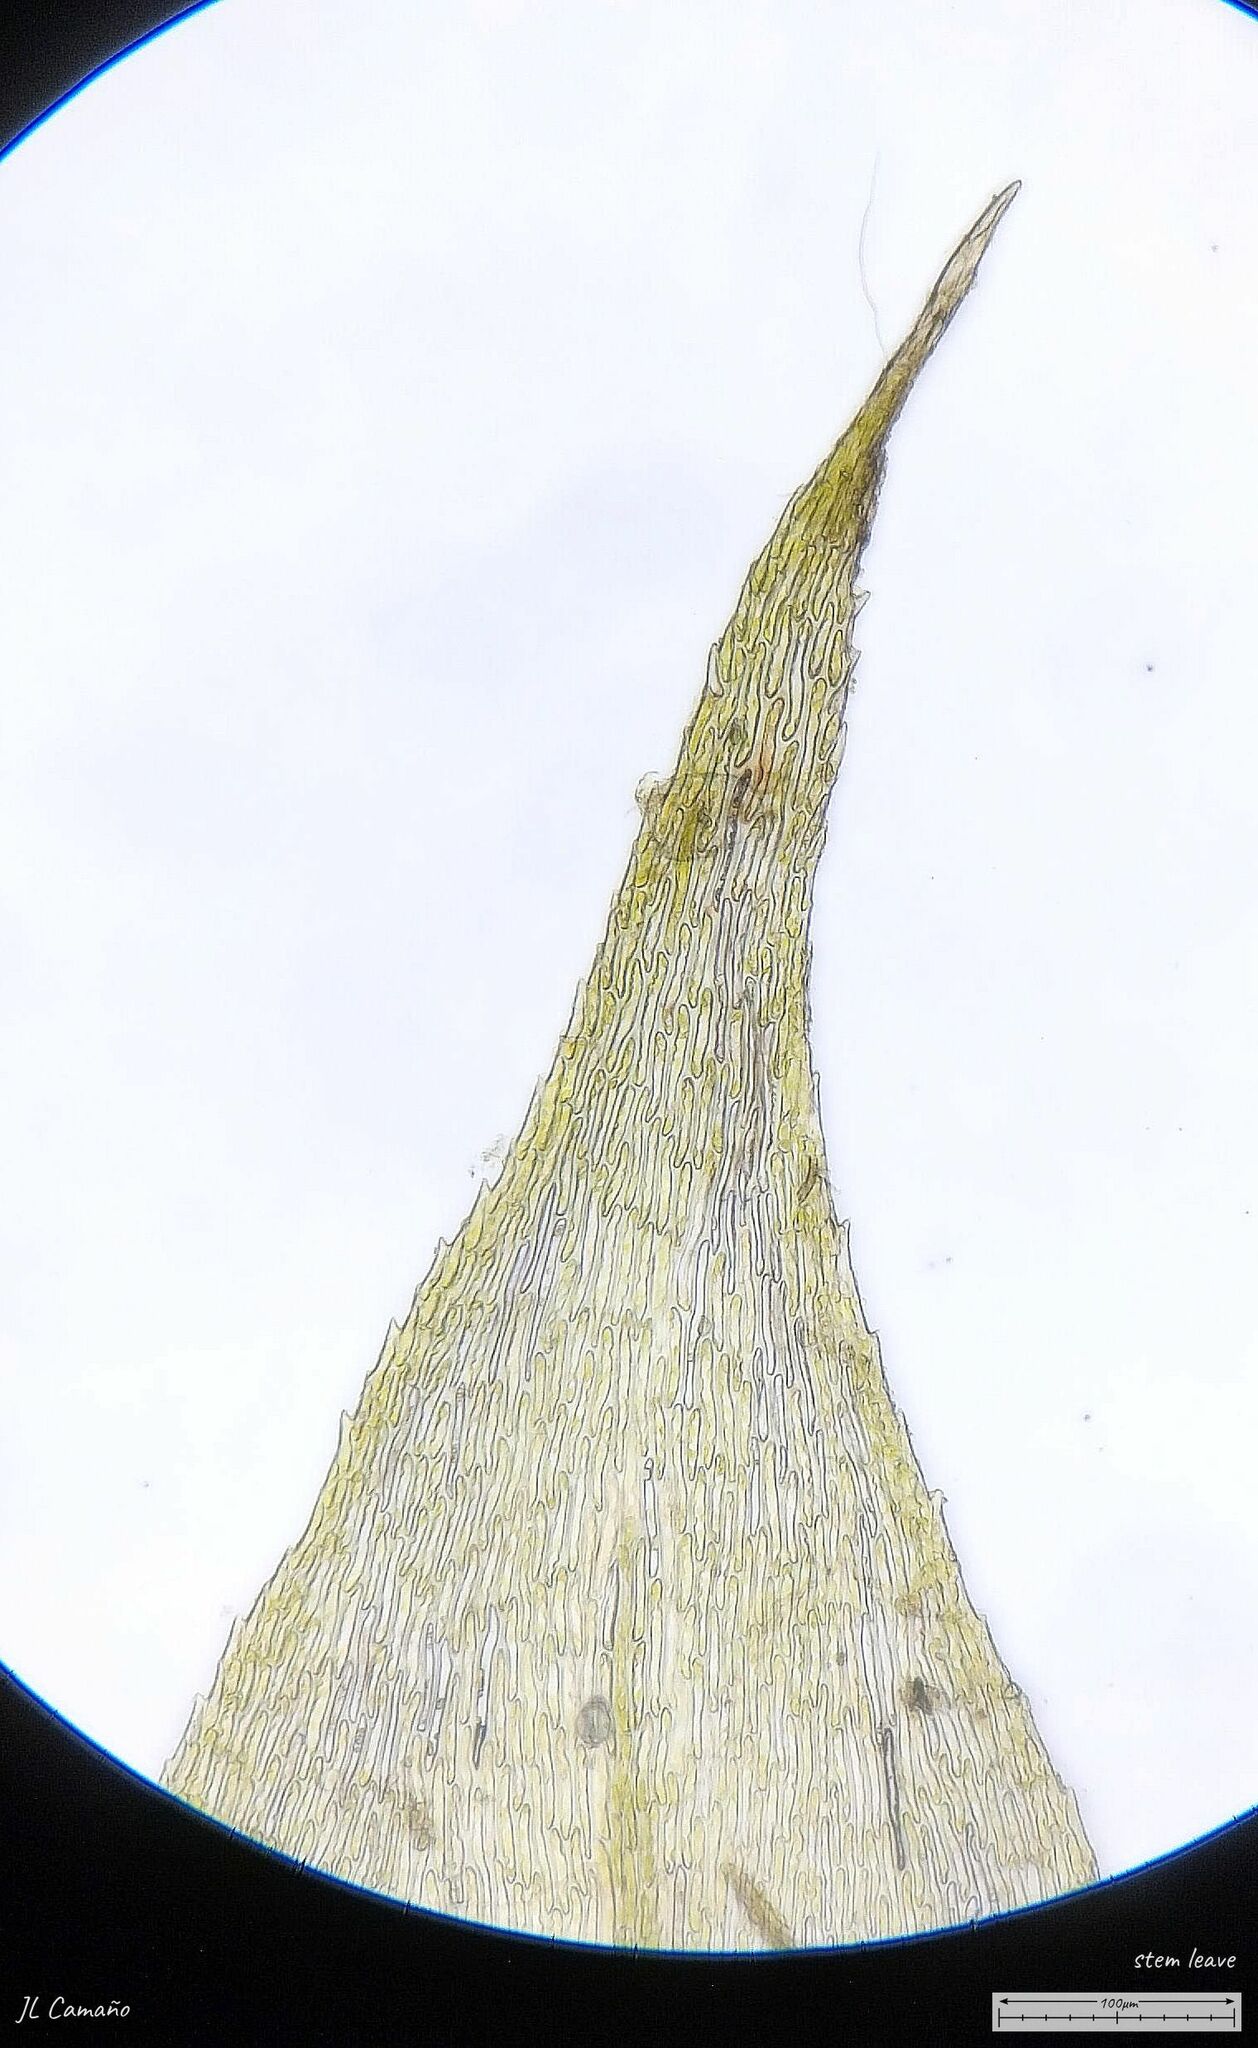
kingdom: Plantae
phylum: Bryophyta
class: Bryopsida
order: Hypnales
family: Lembophyllaceae
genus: Pseudisothecium
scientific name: Pseudisothecium myosuroides
